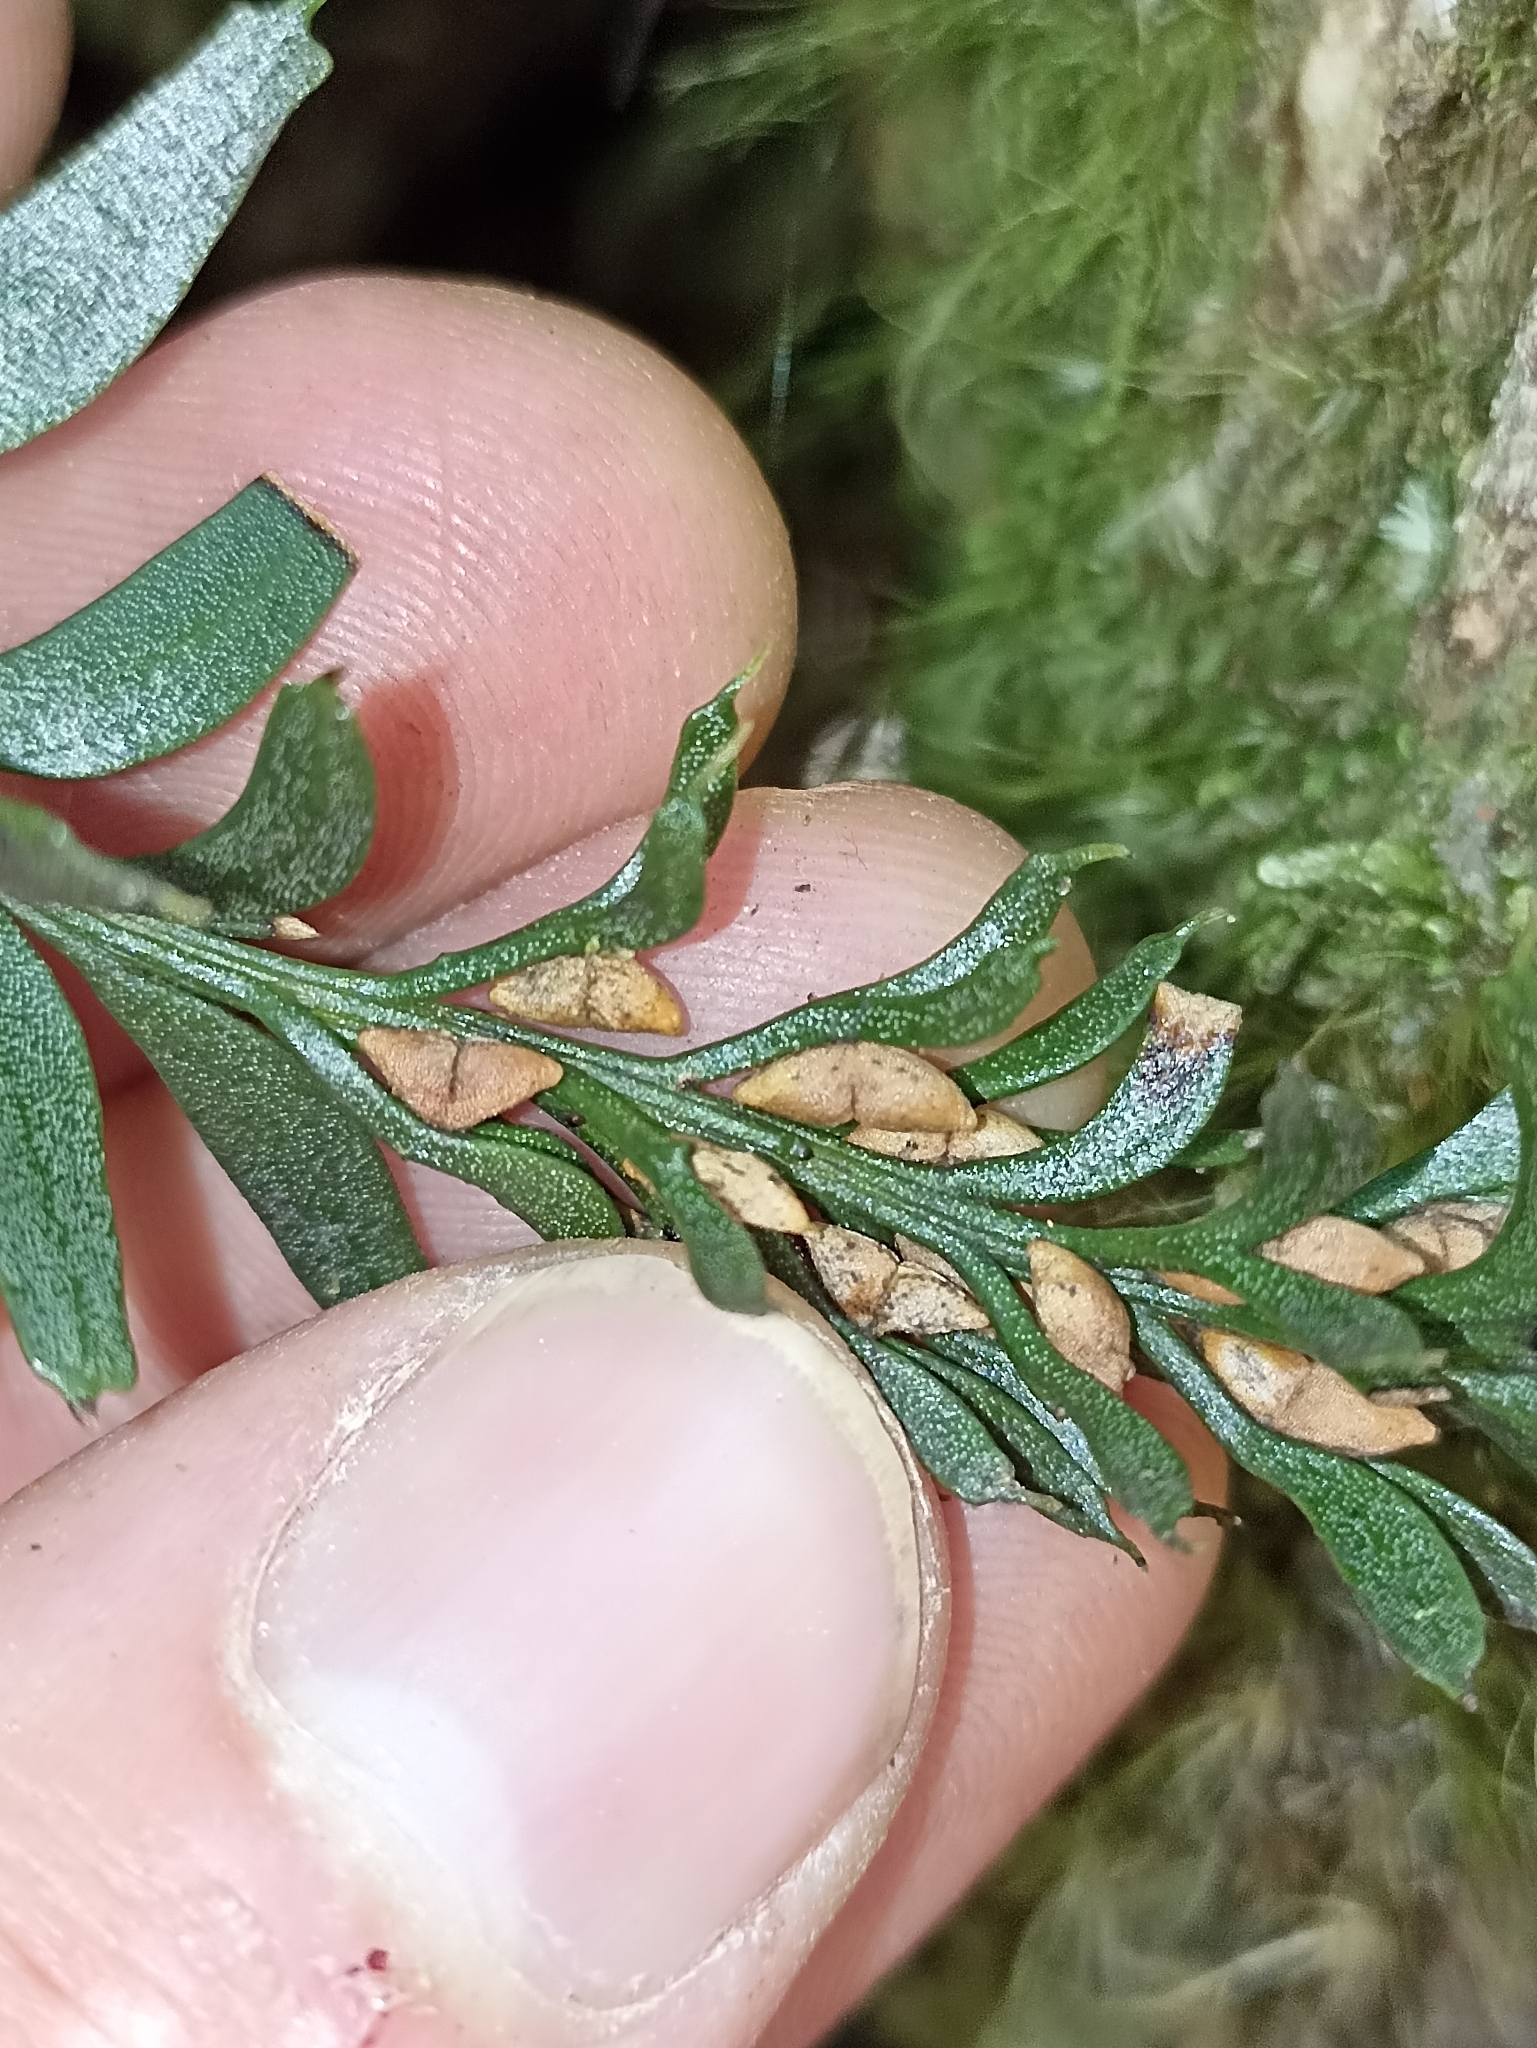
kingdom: Plantae
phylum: Tracheophyta
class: Polypodiopsida
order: Psilotales
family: Psilotaceae
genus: Tmesipteris
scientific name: Tmesipteris tannensis
